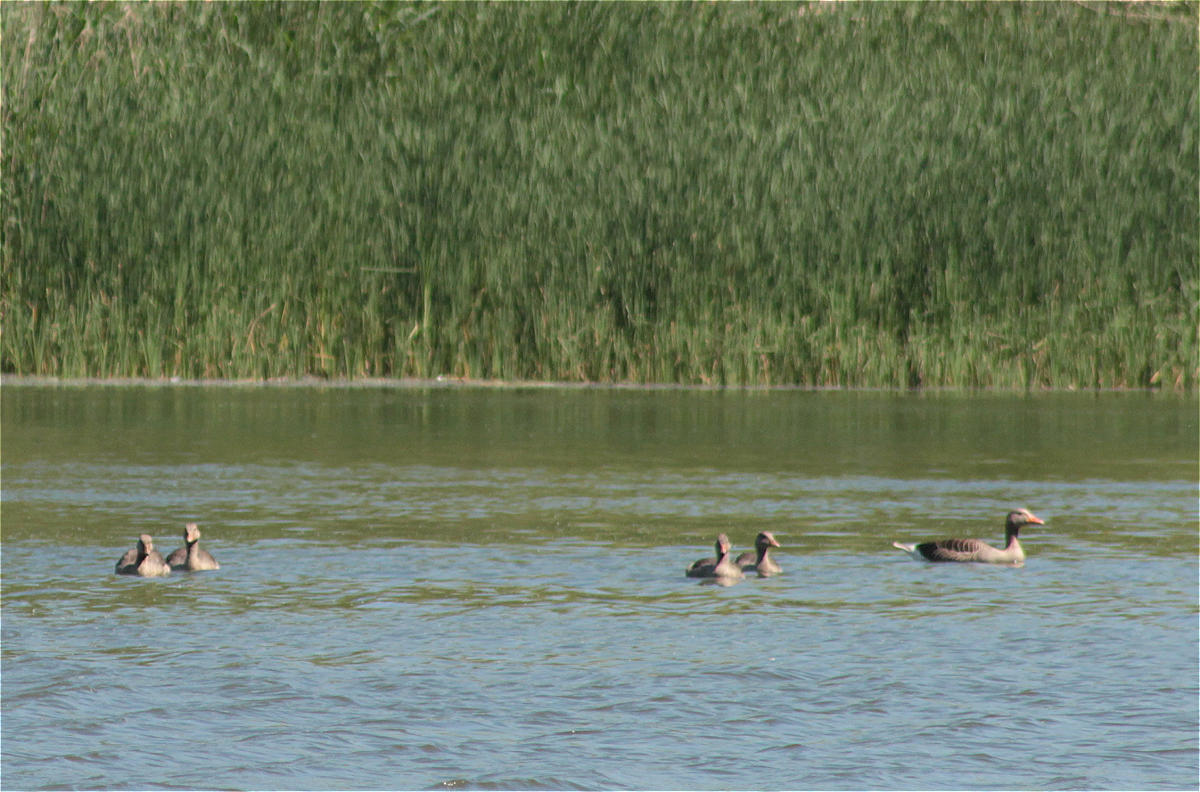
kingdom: Animalia
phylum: Chordata
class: Aves
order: Anseriformes
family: Anatidae
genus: Anser
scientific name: Anser anser
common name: Greylag goose
